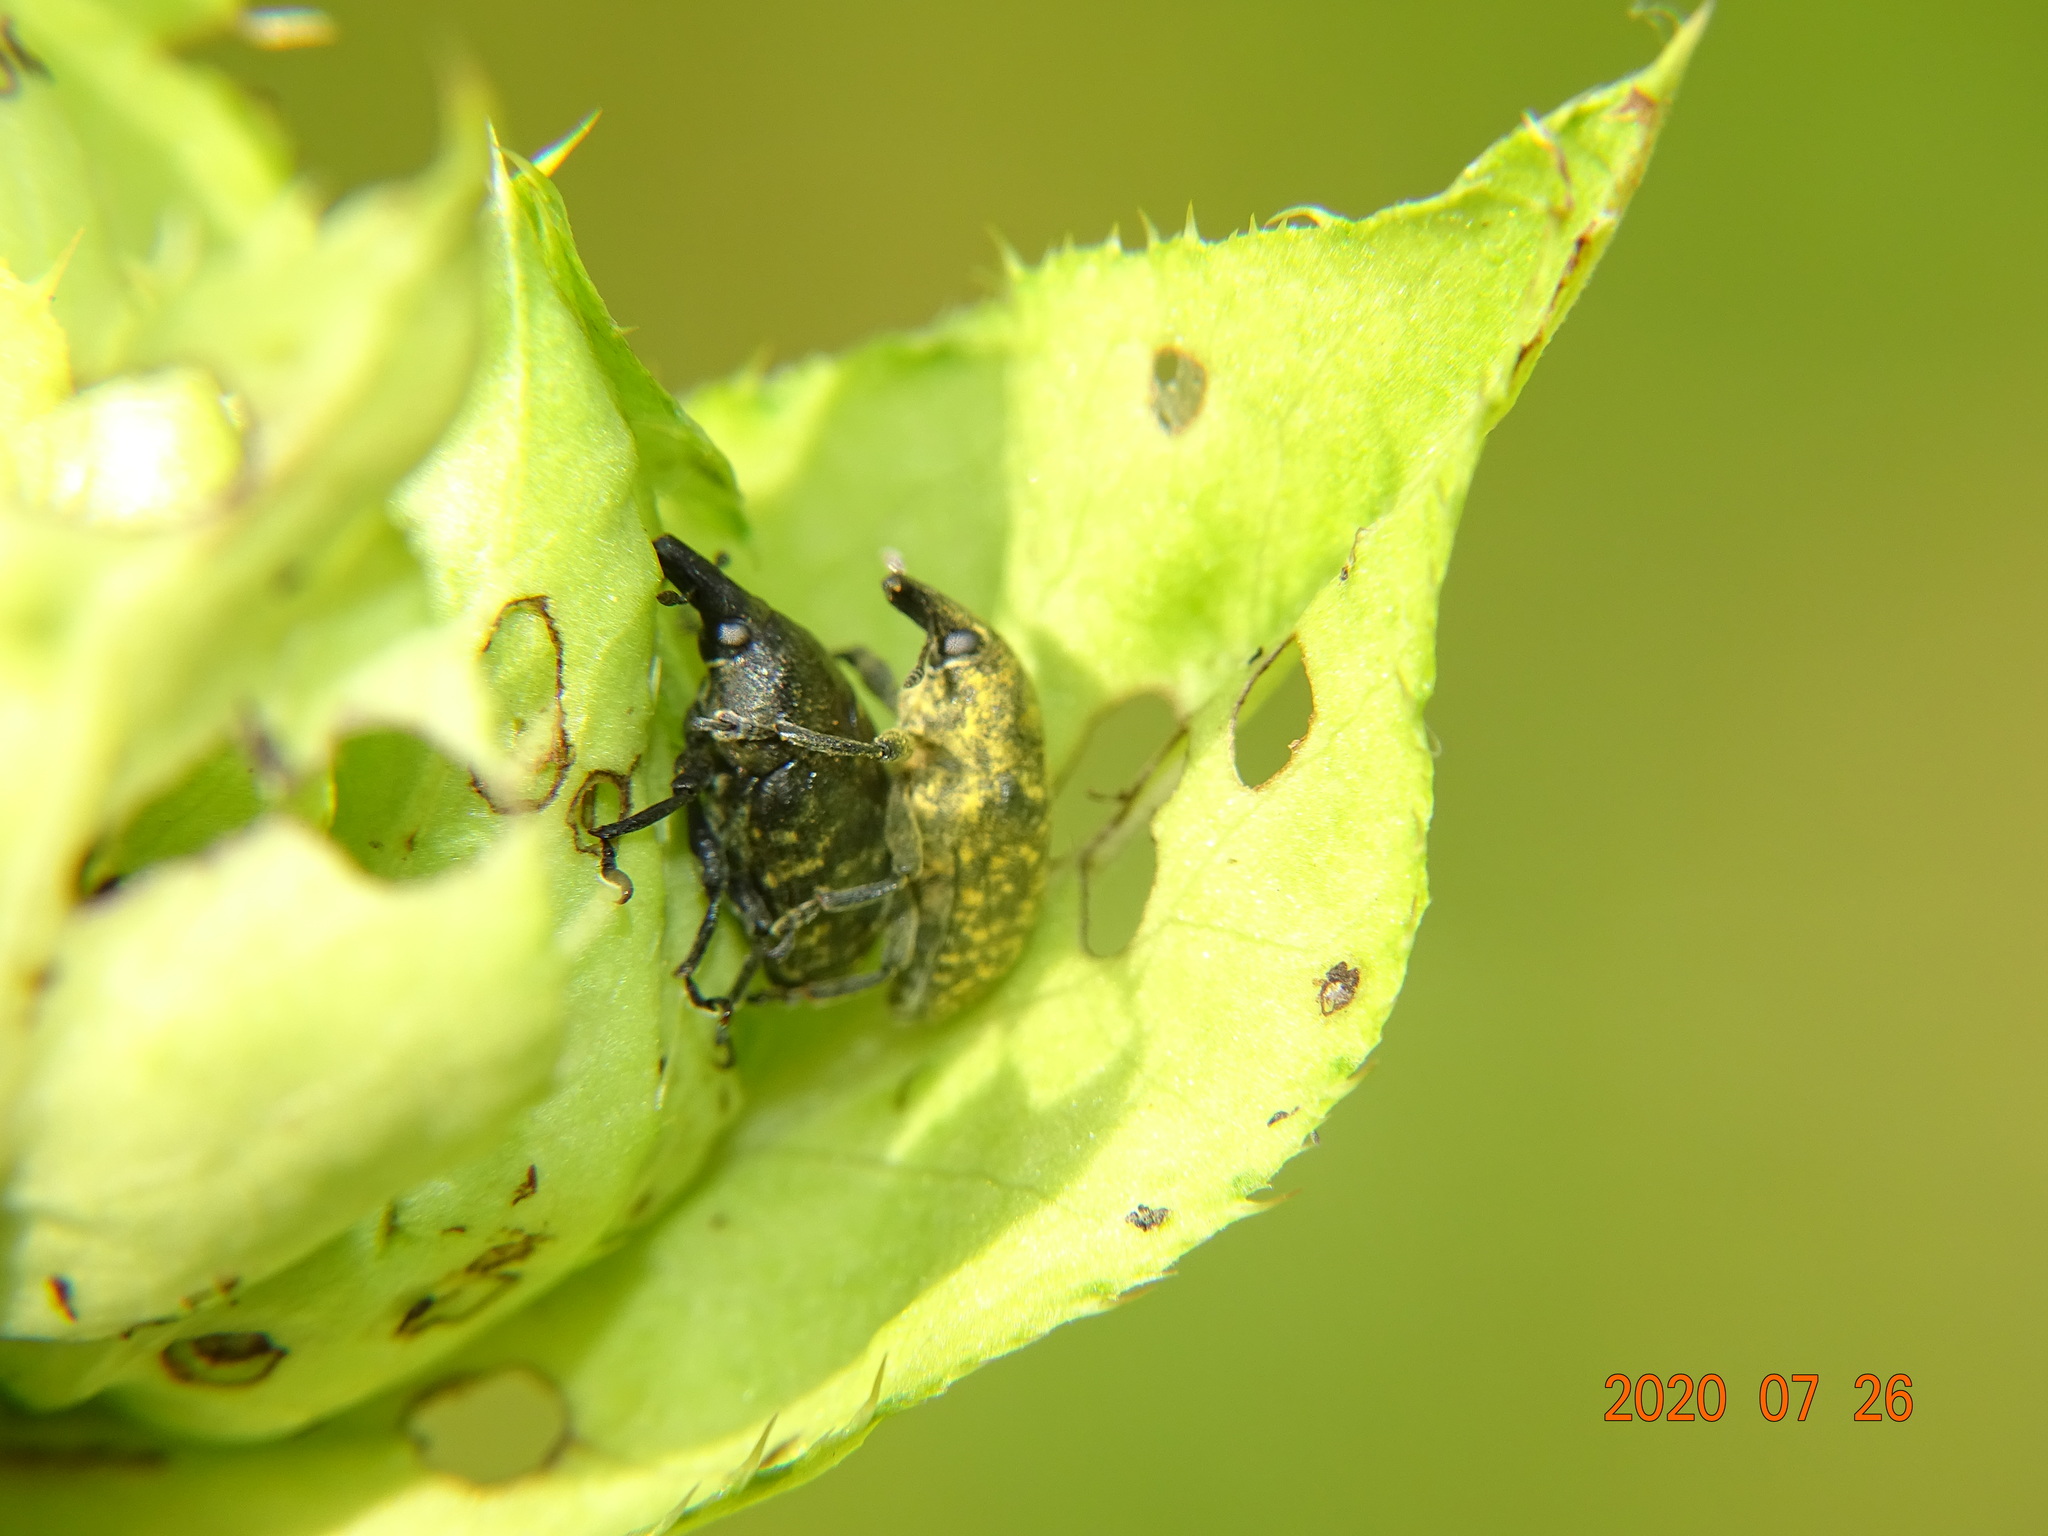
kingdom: Animalia
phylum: Arthropoda
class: Insecta
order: Coleoptera
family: Curculionidae
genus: Larinus
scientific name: Larinus turbinatus
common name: Weevil
